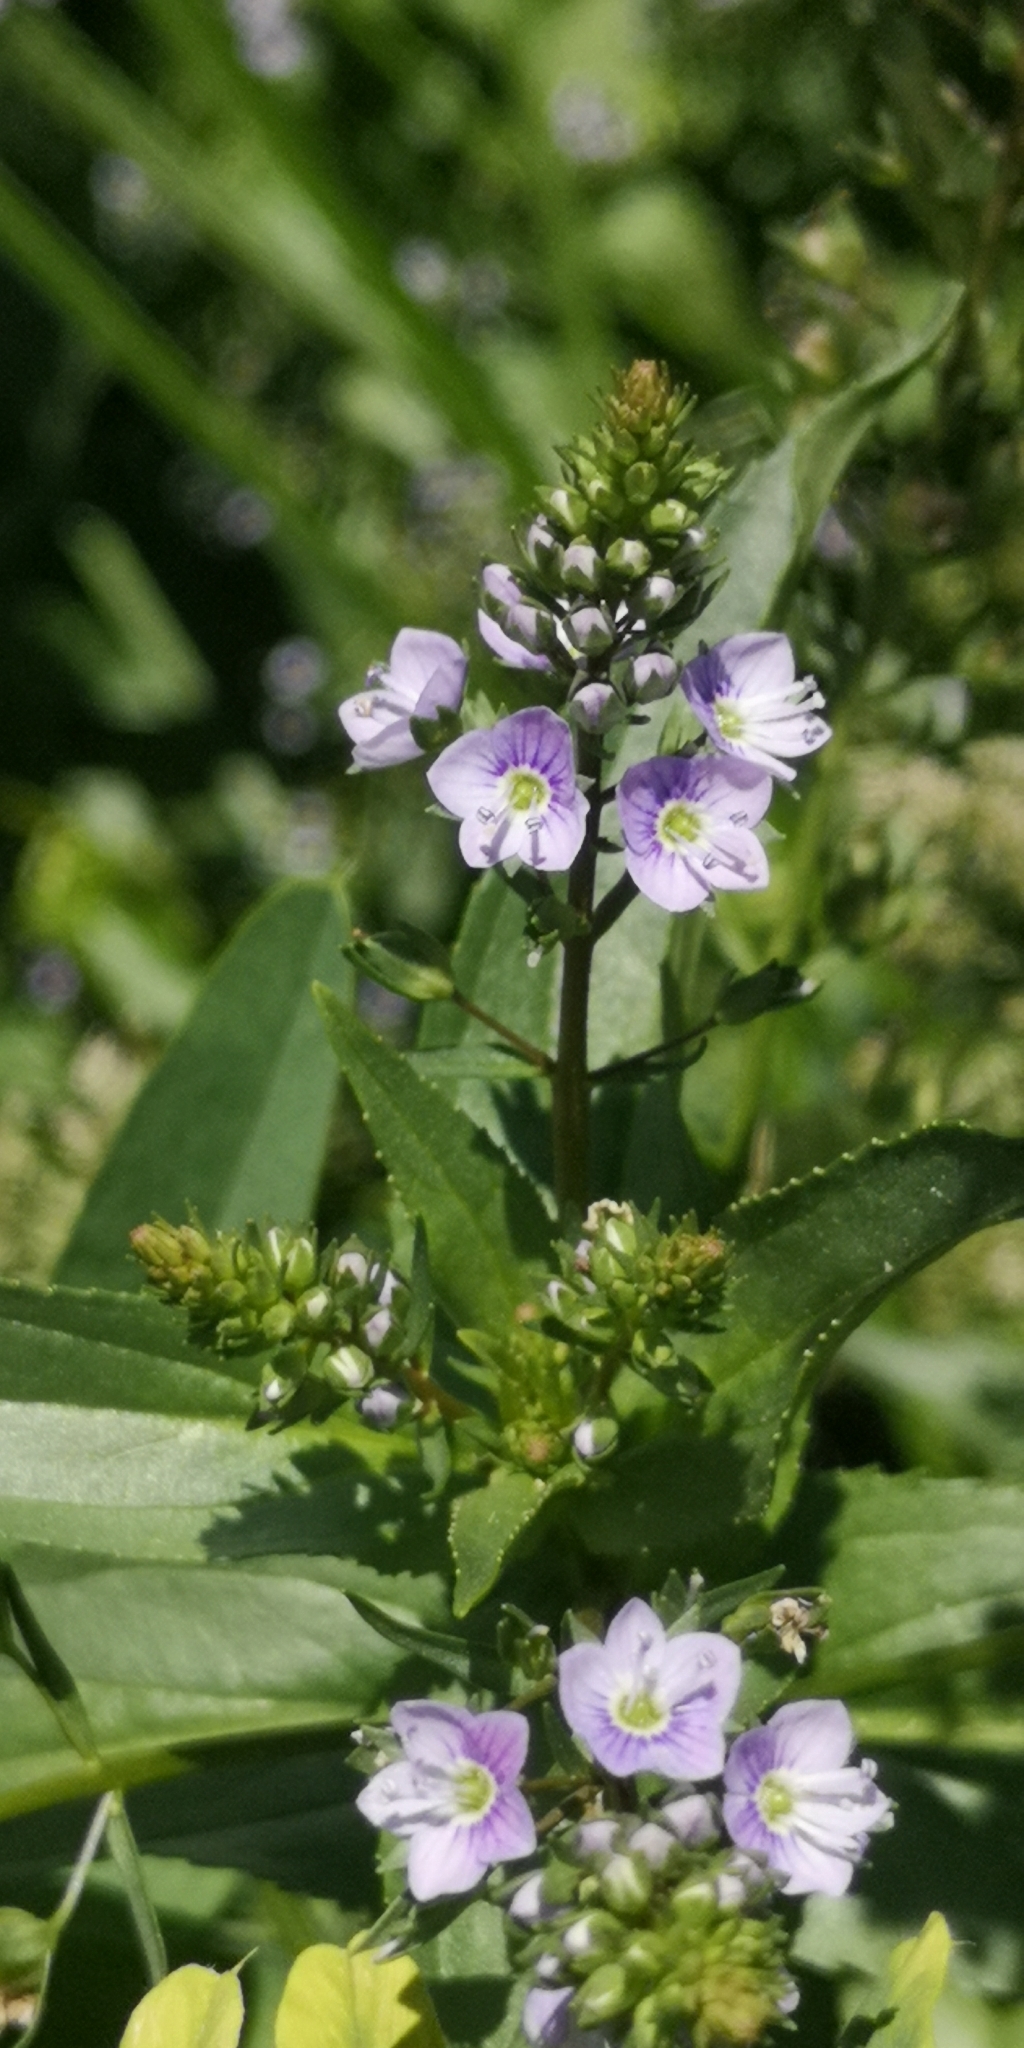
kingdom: Plantae
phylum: Tracheophyta
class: Magnoliopsida
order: Lamiales
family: Plantaginaceae
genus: Veronica
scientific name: Veronica anagallis-aquatica
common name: Water speedwell
